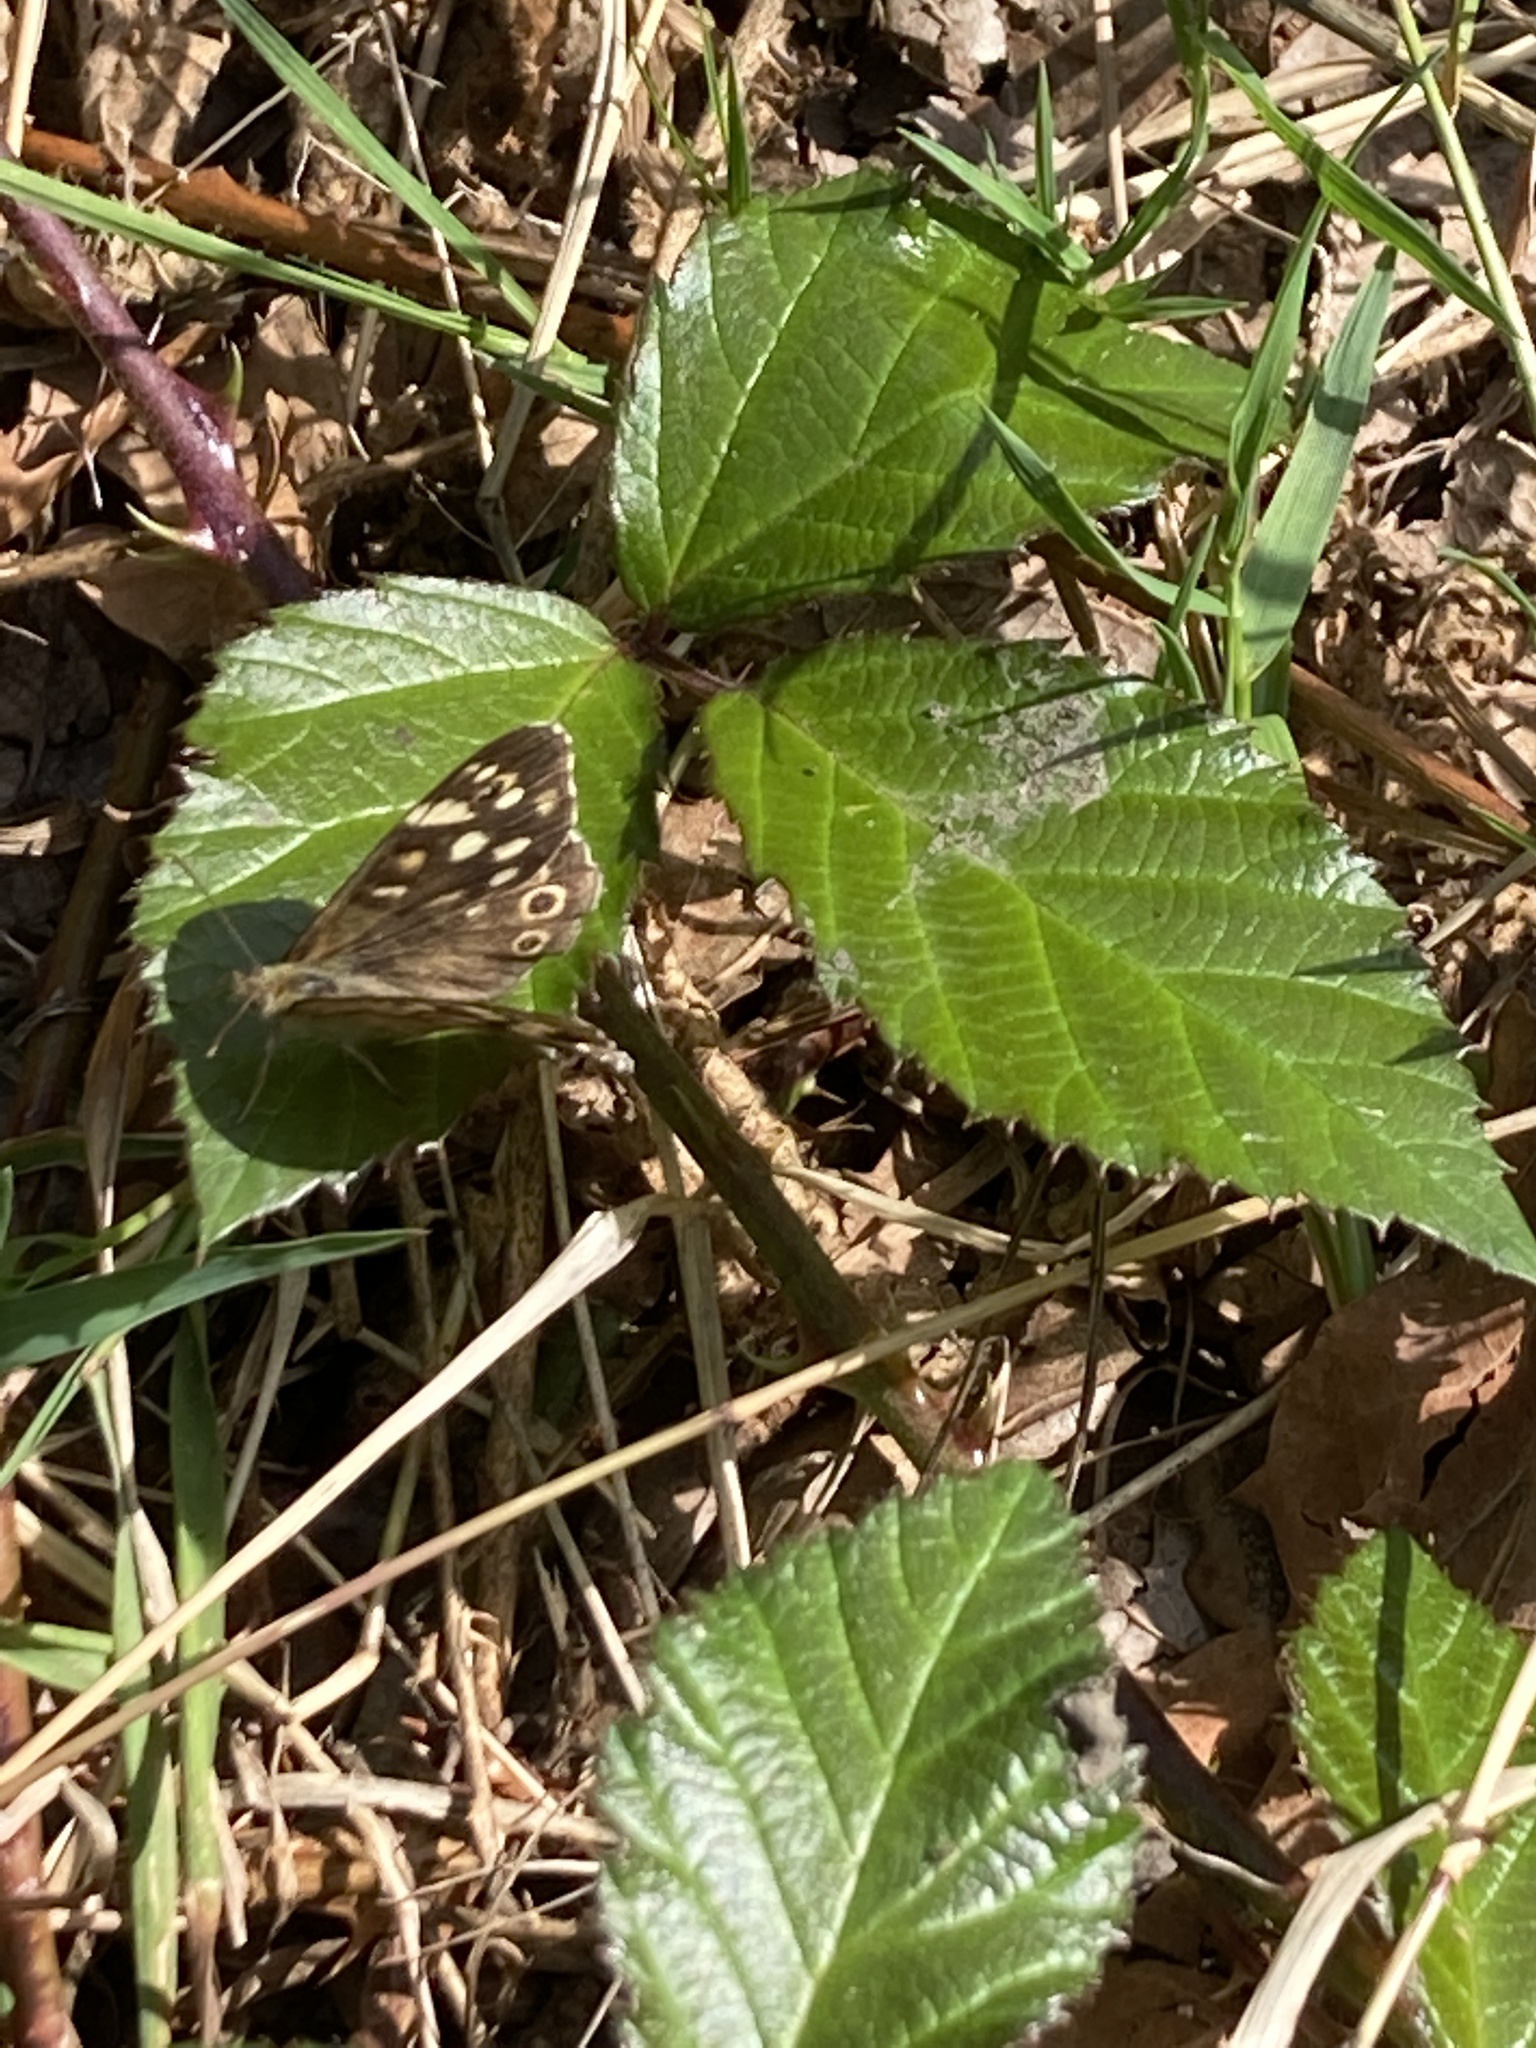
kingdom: Animalia
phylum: Arthropoda
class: Insecta
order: Lepidoptera
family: Nymphalidae
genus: Pararge
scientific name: Pararge aegeria
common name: Speckled wood
